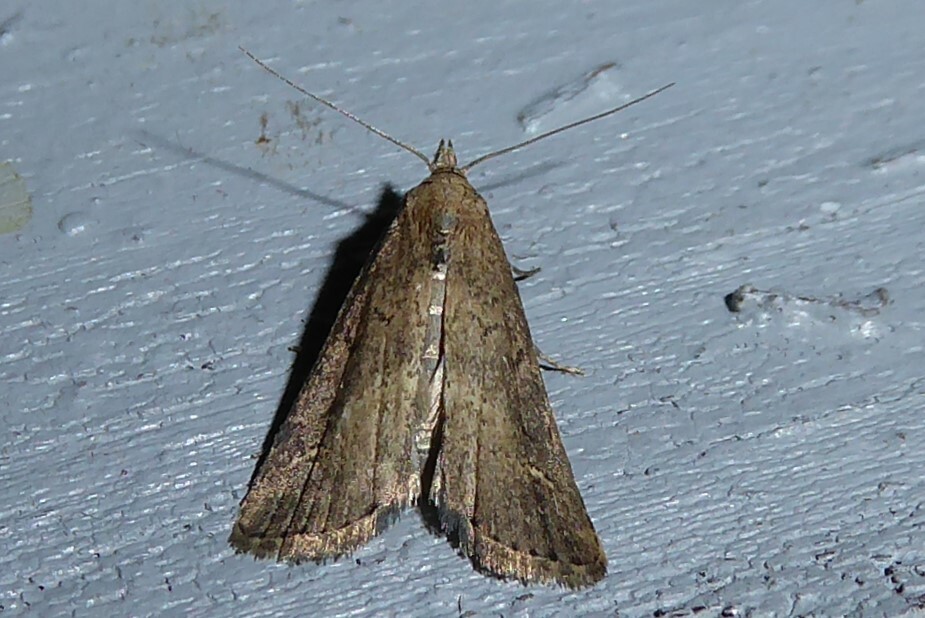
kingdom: Animalia
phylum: Arthropoda
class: Insecta
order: Lepidoptera
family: Erebidae
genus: Schrankia
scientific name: Schrankia costaestrigalis
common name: Pinion-streaked snout
